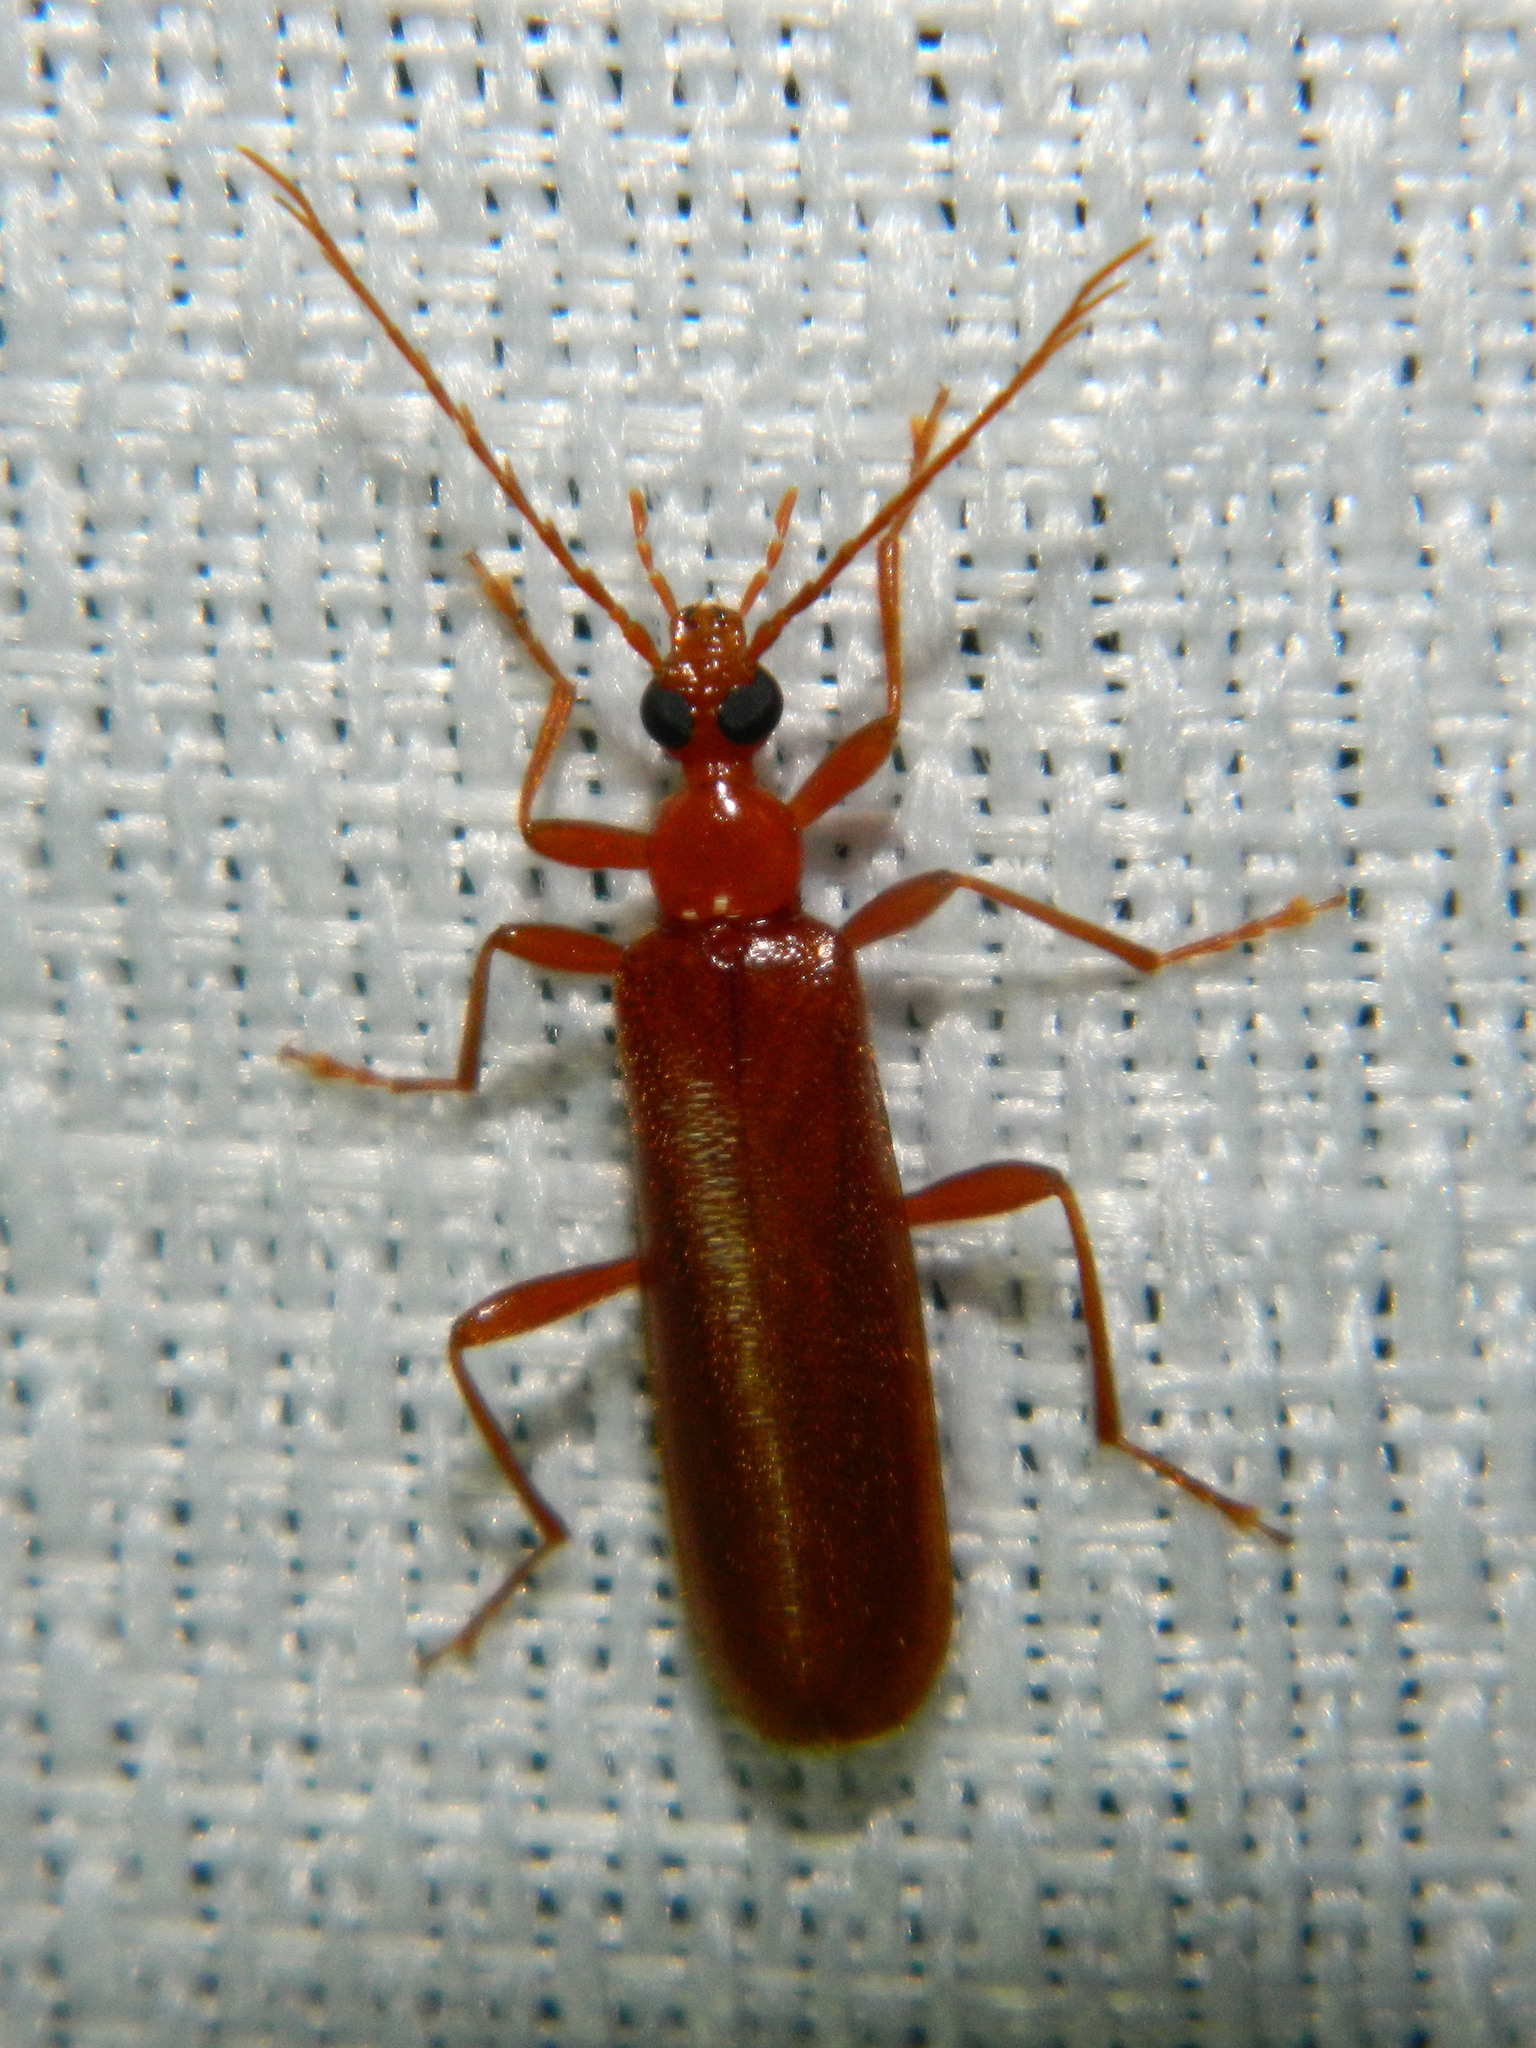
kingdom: Animalia
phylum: Arthropoda
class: Insecta
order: Coleoptera
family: Pyrochroidae
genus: Dendroides
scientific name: Dendroides concolor
